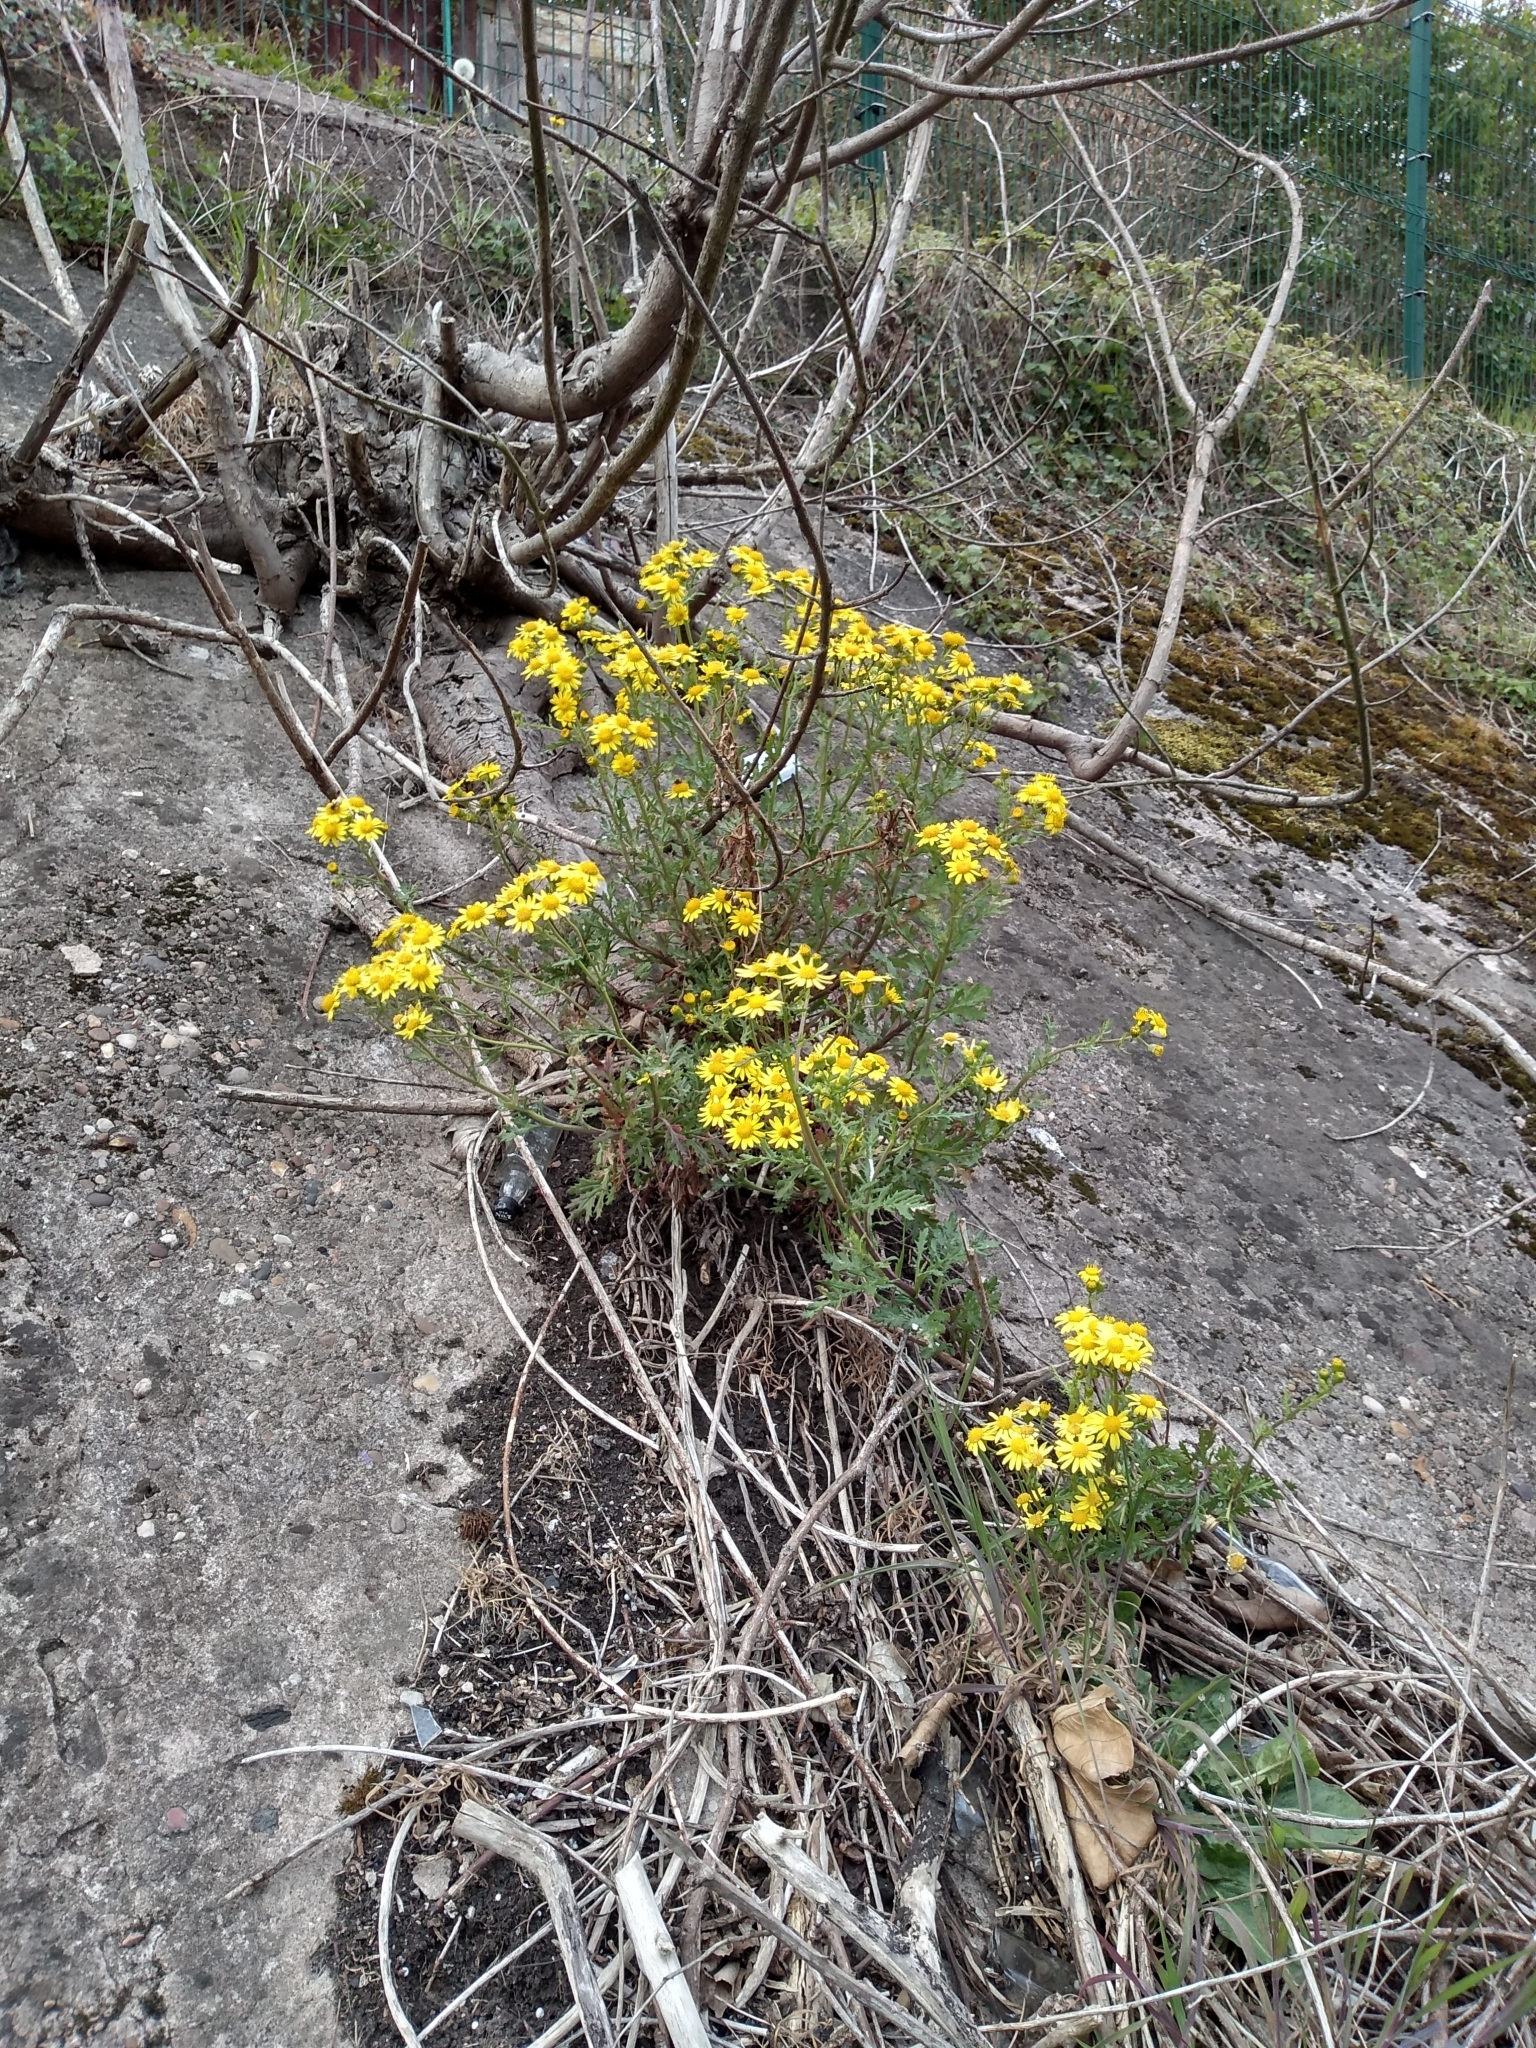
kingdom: Plantae
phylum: Tracheophyta
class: Magnoliopsida
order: Asterales
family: Asteraceae
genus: Senecio
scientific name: Senecio squalidus
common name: Oxford ragwort
